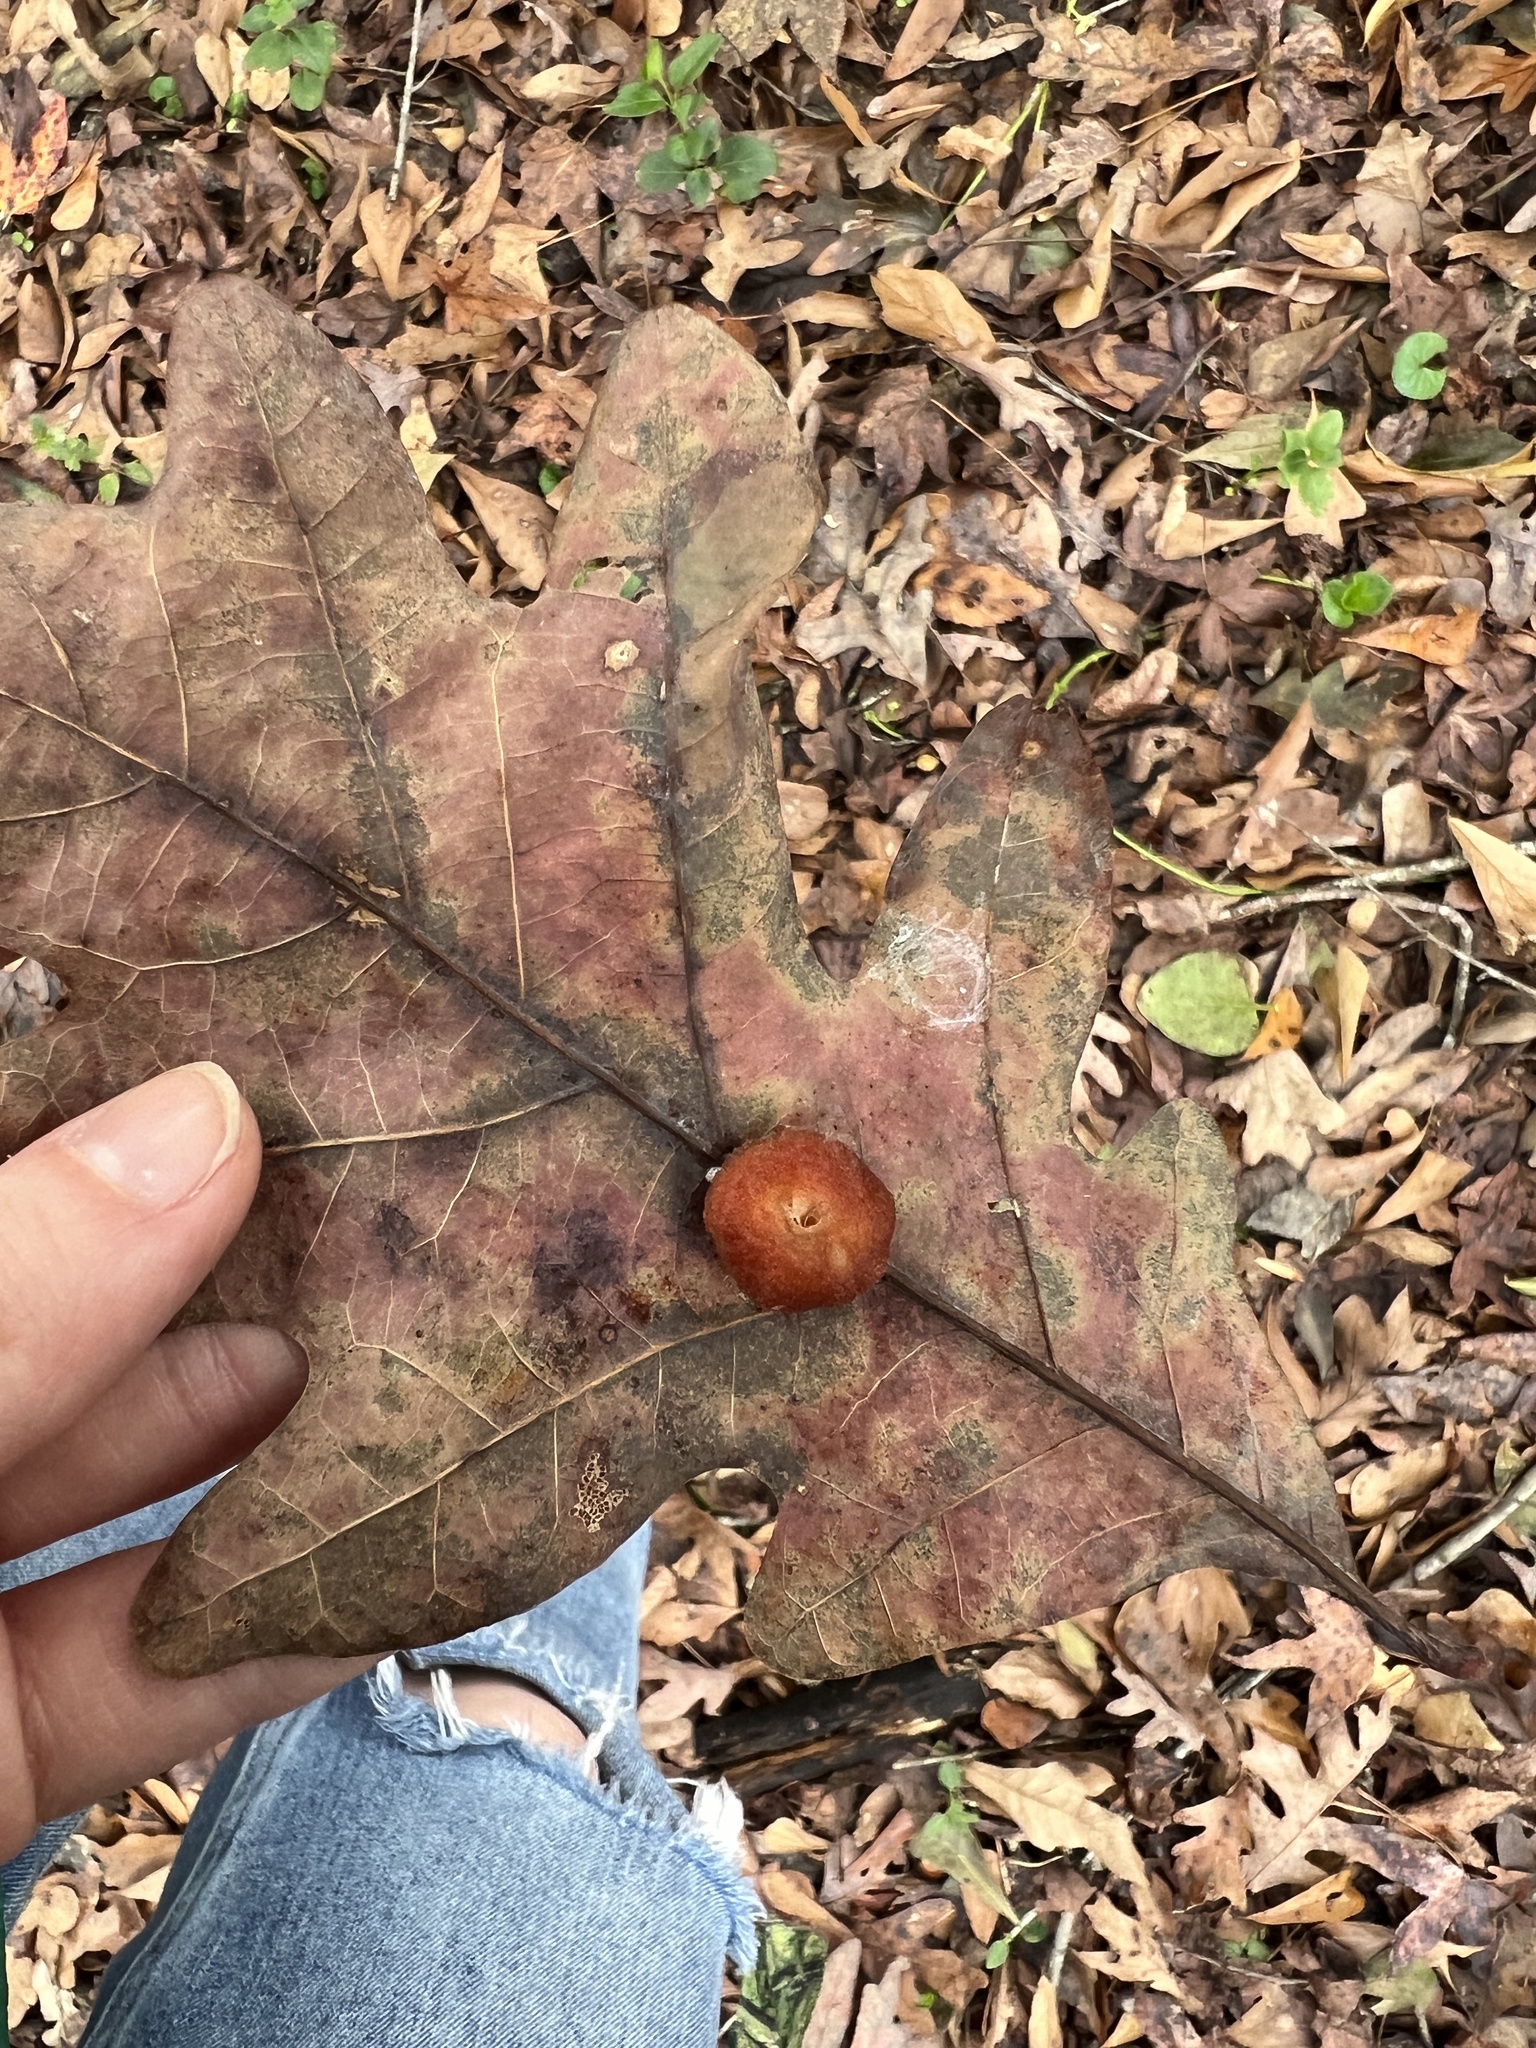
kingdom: Animalia
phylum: Arthropoda
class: Insecta
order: Hymenoptera
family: Cynipidae
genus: Andricus
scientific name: Andricus quercusflocci
